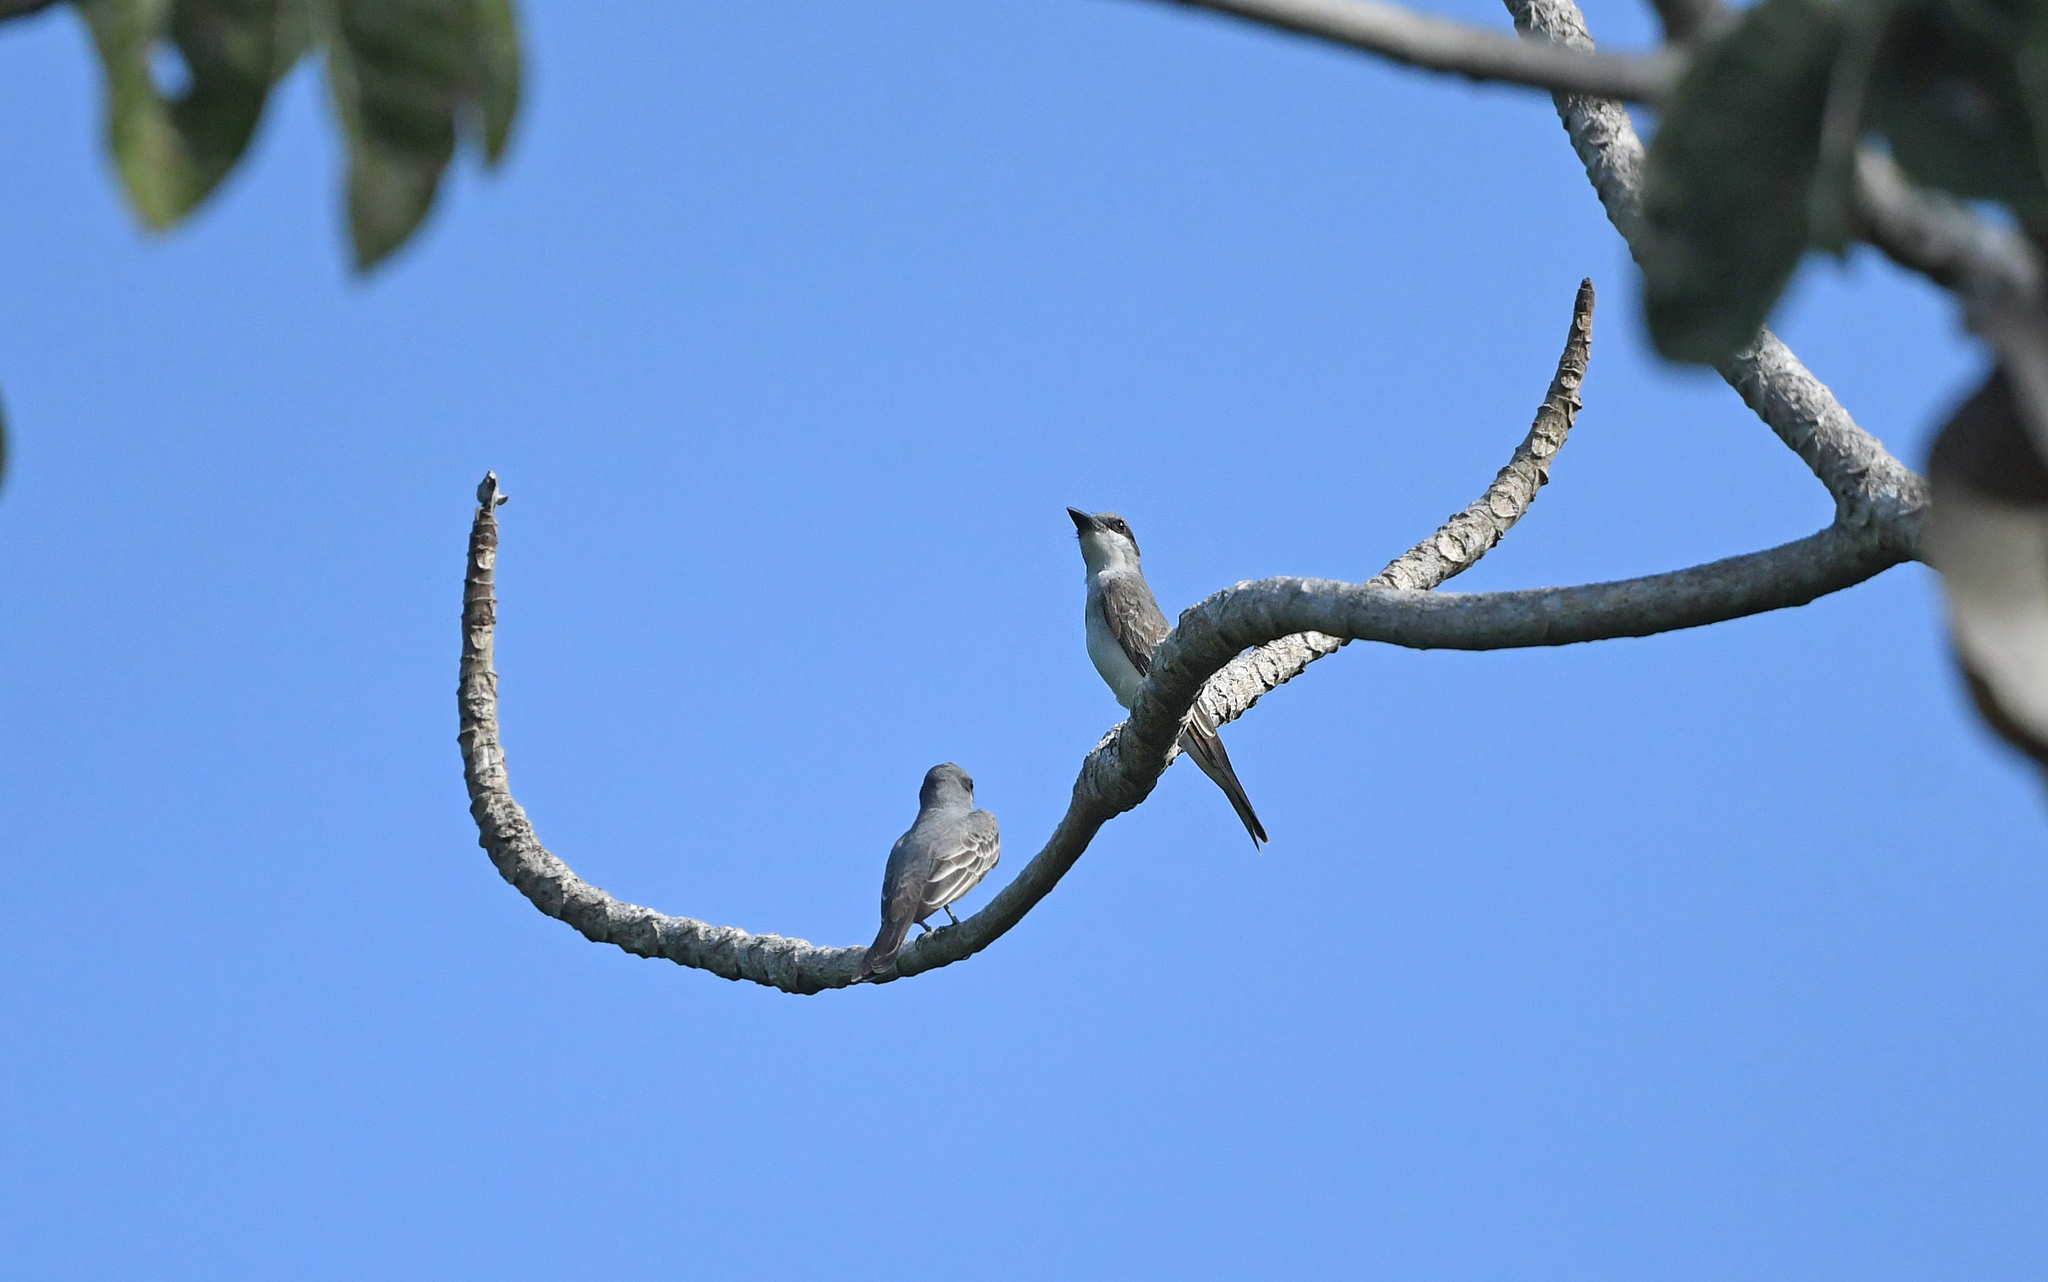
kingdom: Animalia
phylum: Chordata
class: Aves
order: Passeriformes
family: Tyrannidae
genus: Tyrannus
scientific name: Tyrannus dominicensis
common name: Gray kingbird
